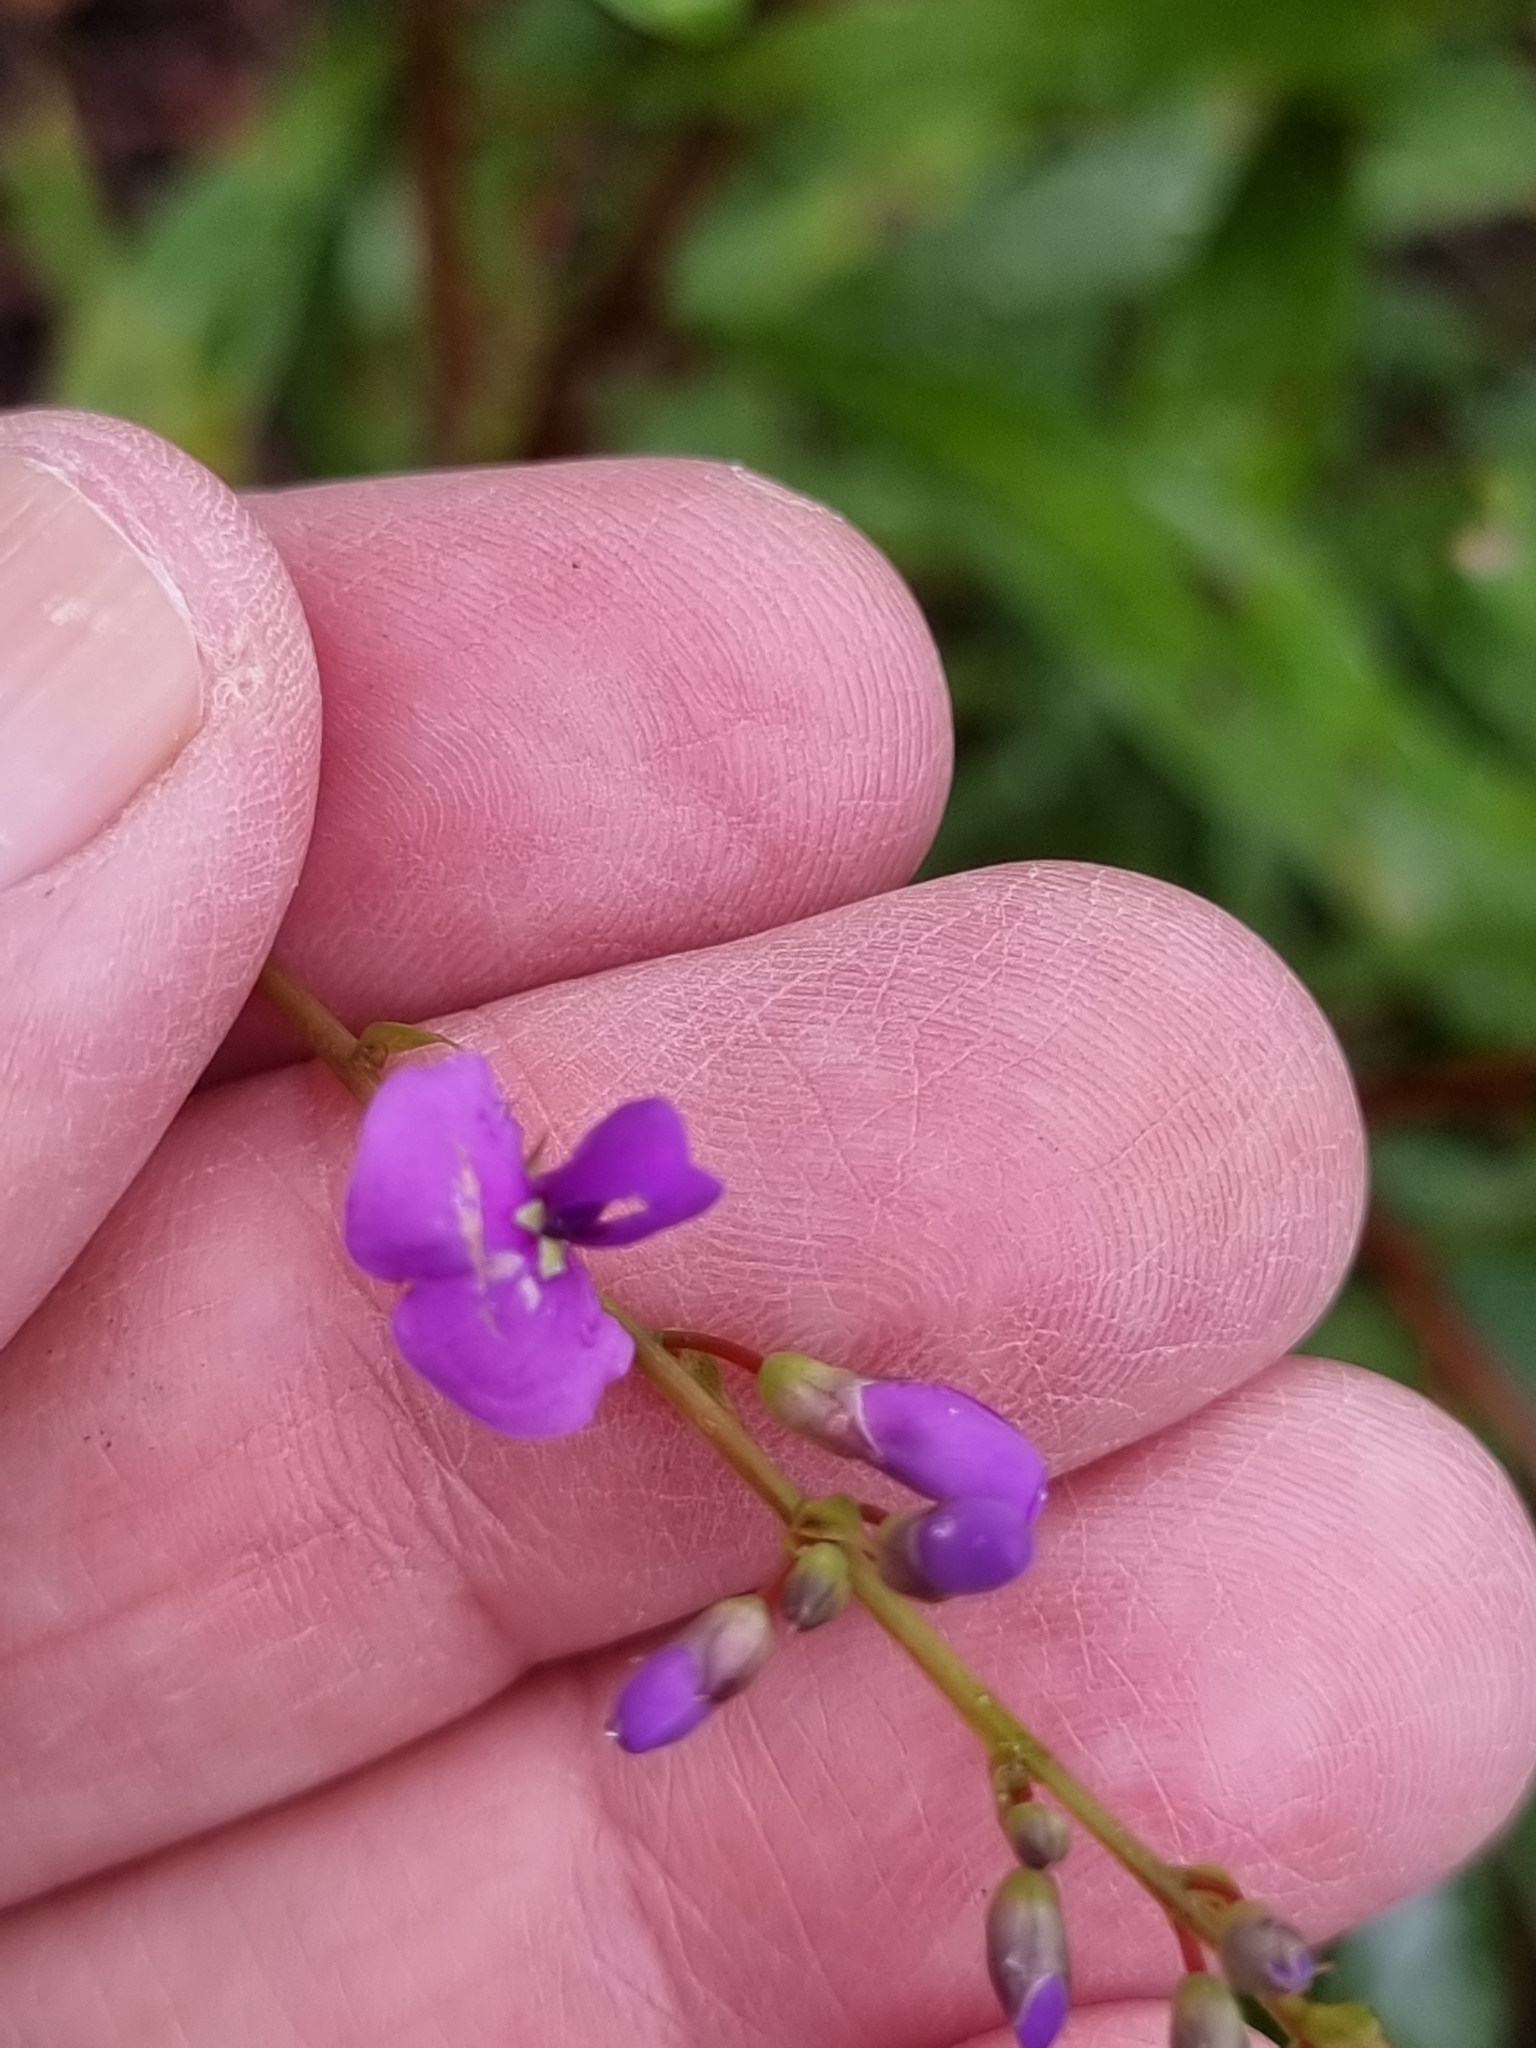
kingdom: Plantae
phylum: Tracheophyta
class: Magnoliopsida
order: Fabales
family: Fabaceae
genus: Hardenbergia
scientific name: Hardenbergia violacea
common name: Coral-pea
